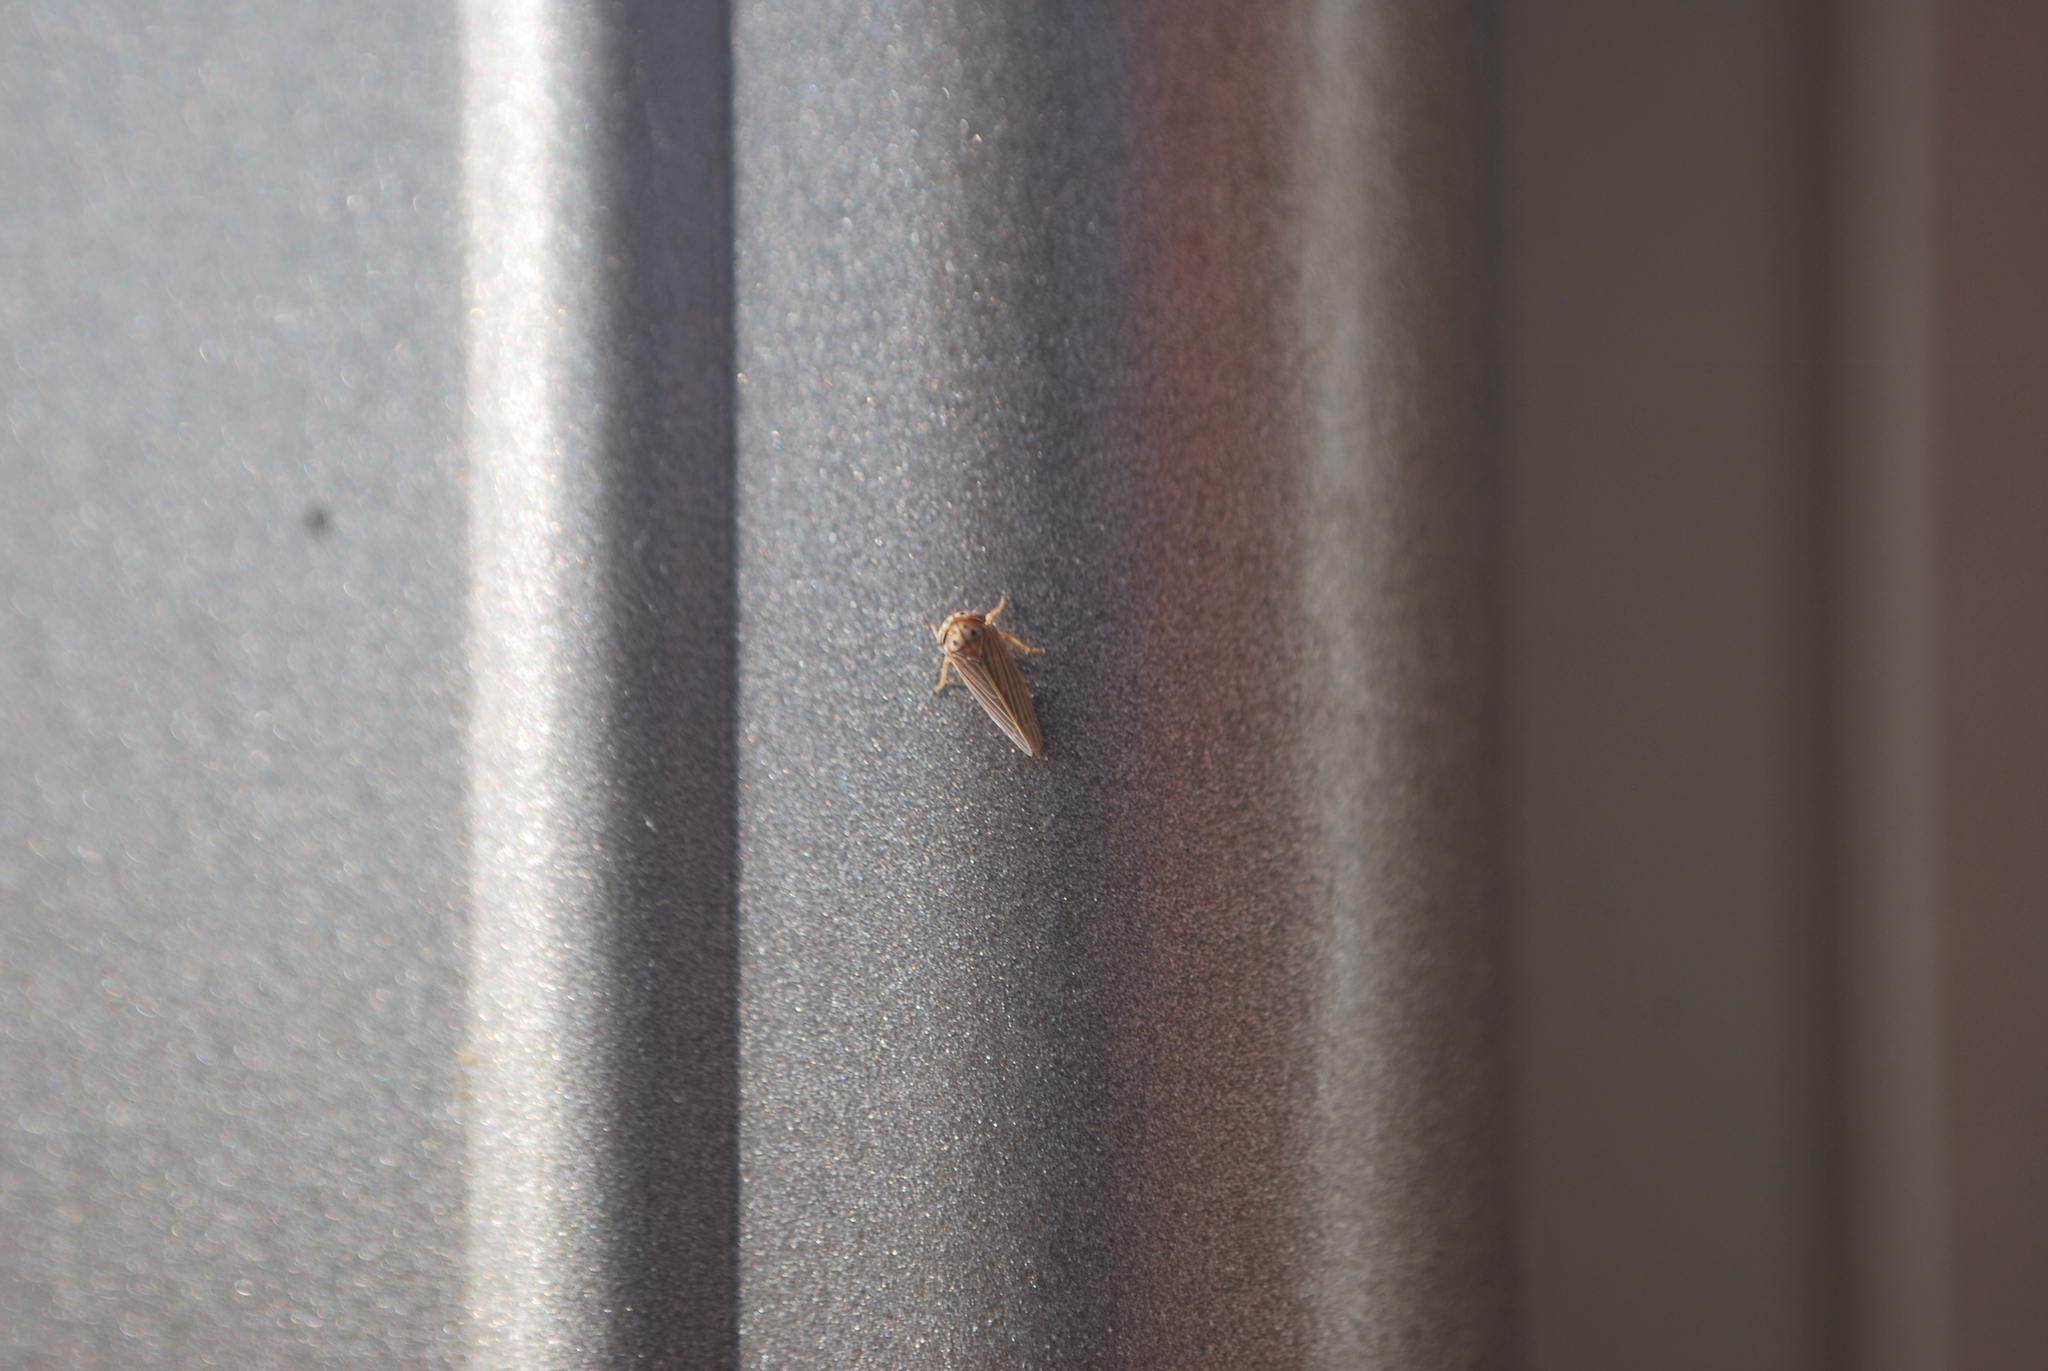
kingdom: Animalia
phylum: Arthropoda
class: Insecta
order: Hemiptera
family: Cicadellidae
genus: Agallia
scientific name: Agallia constricta
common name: The constricted leafhopper
